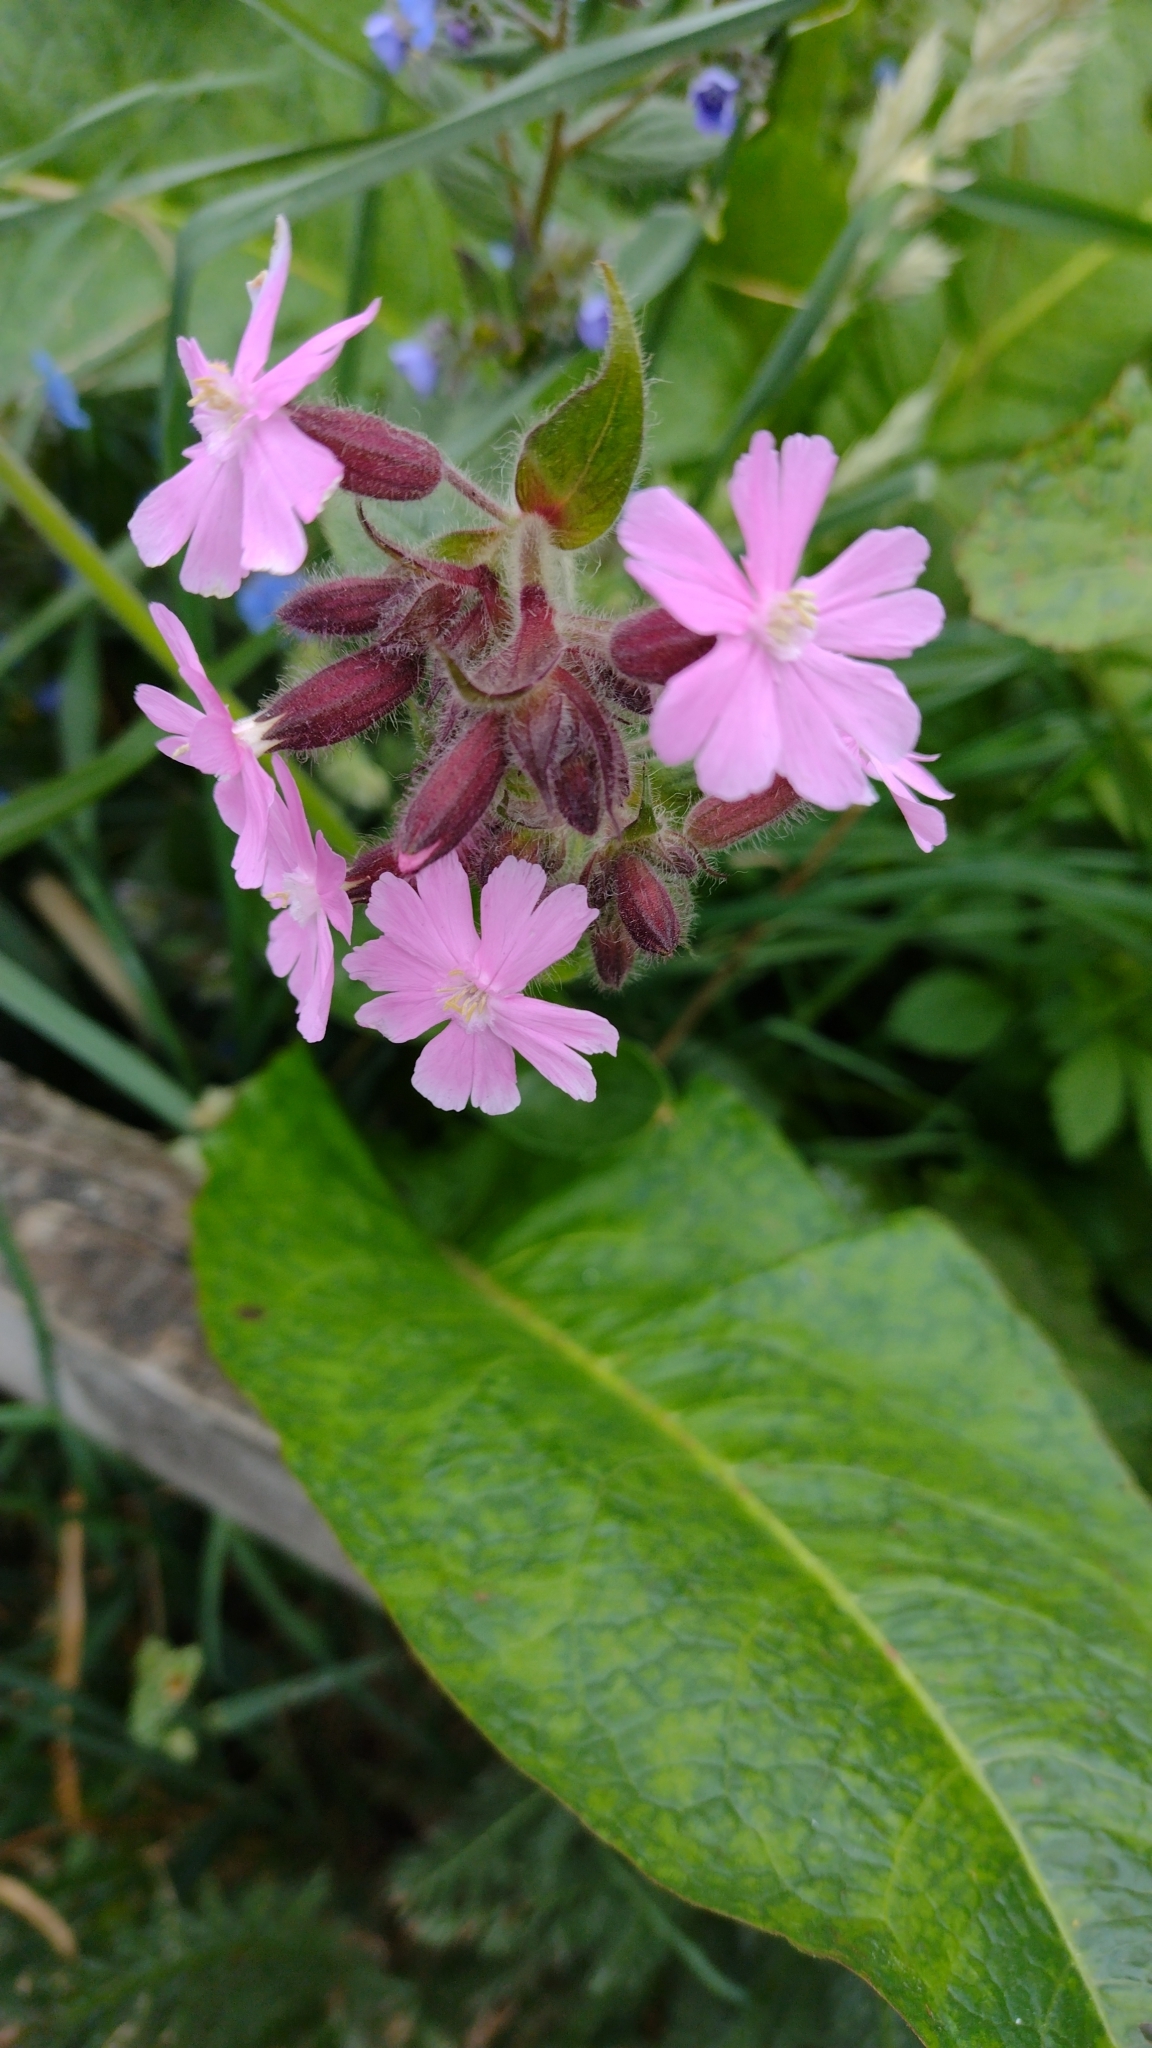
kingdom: Plantae
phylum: Tracheophyta
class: Magnoliopsida
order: Caryophyllales
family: Caryophyllaceae
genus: Silene
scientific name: Silene dioica
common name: Red campion
